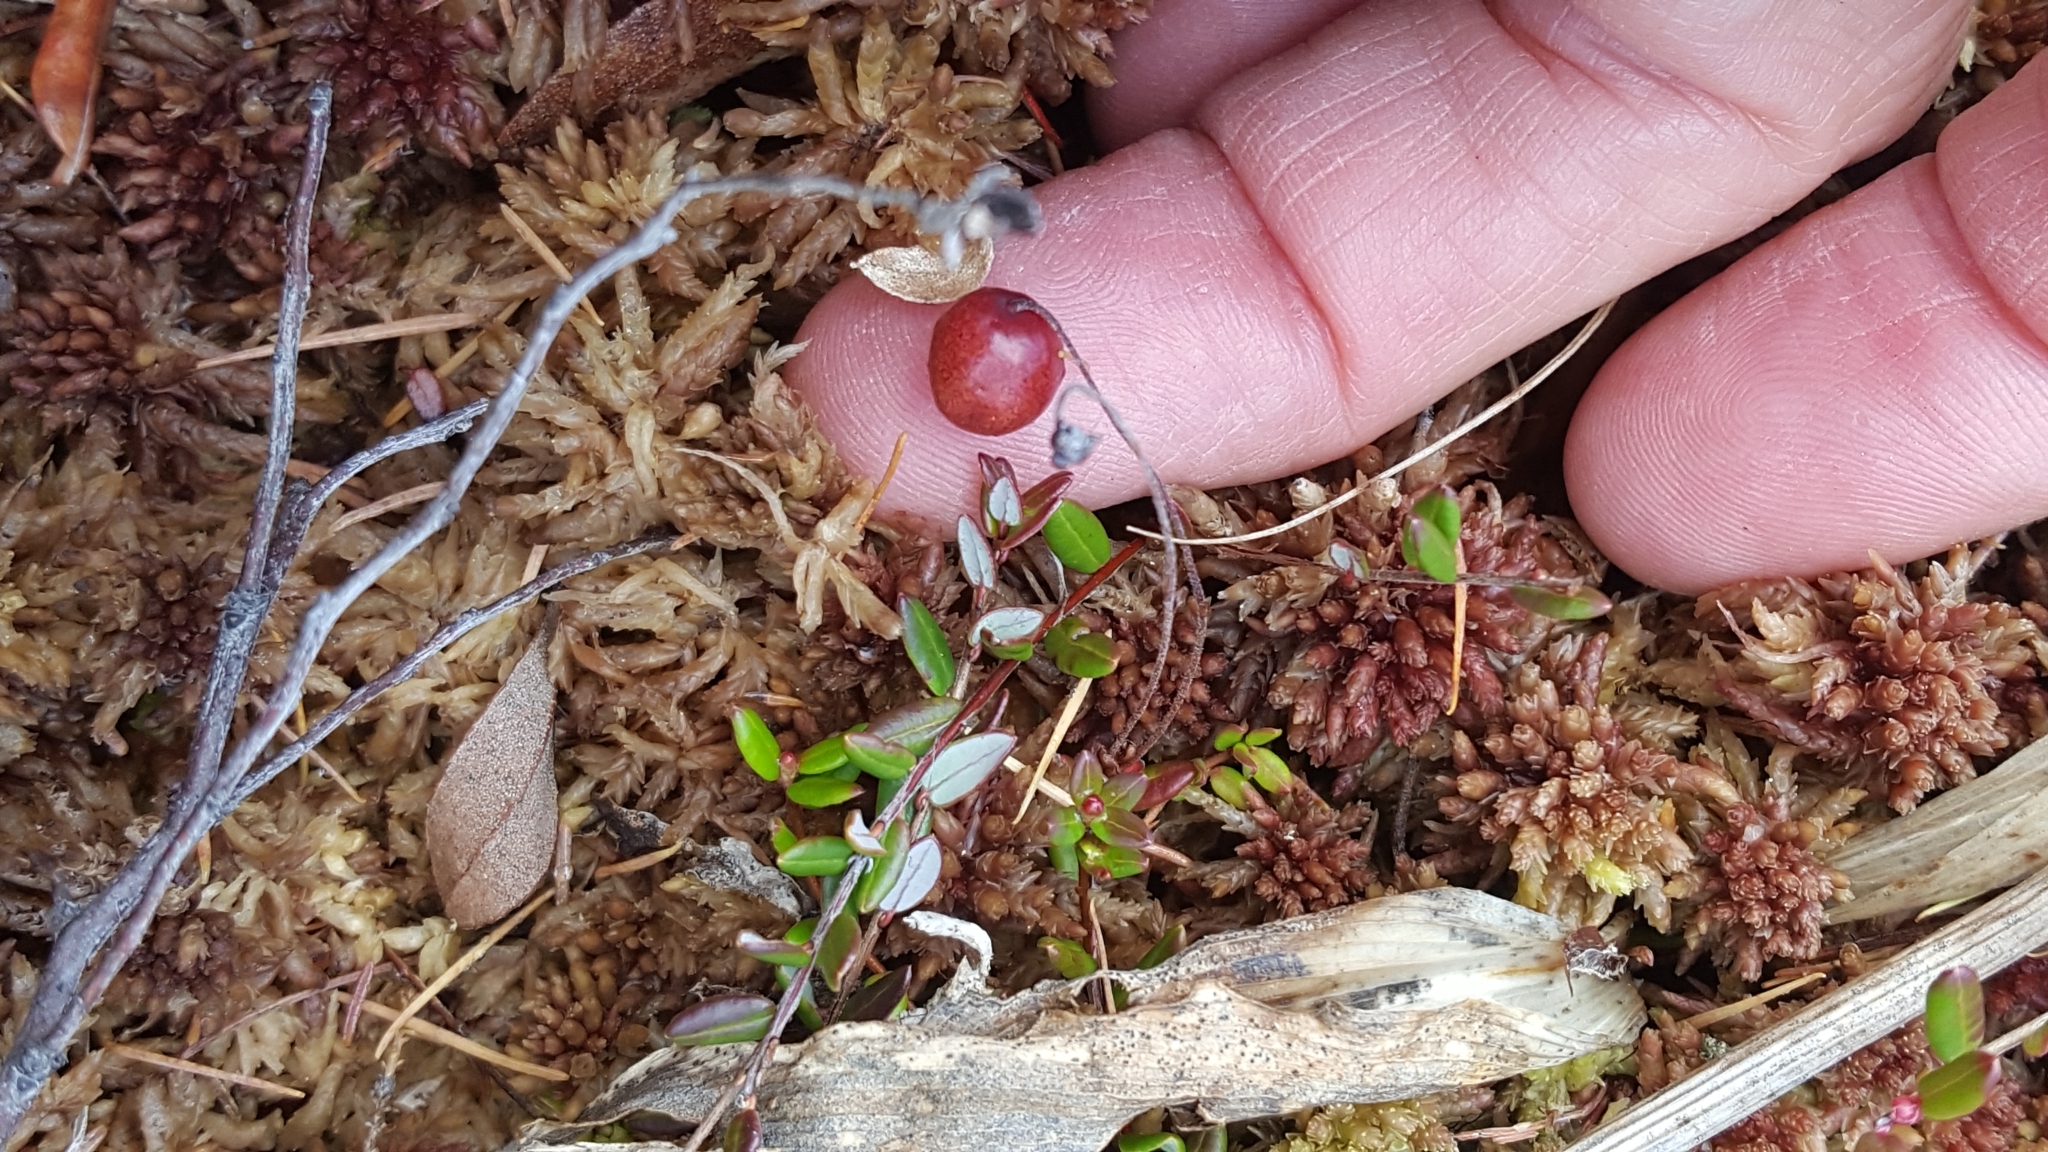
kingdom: Plantae
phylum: Tracheophyta
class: Magnoliopsida
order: Ericales
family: Ericaceae
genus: Vaccinium
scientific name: Vaccinium oxycoccos
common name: Cranberry
